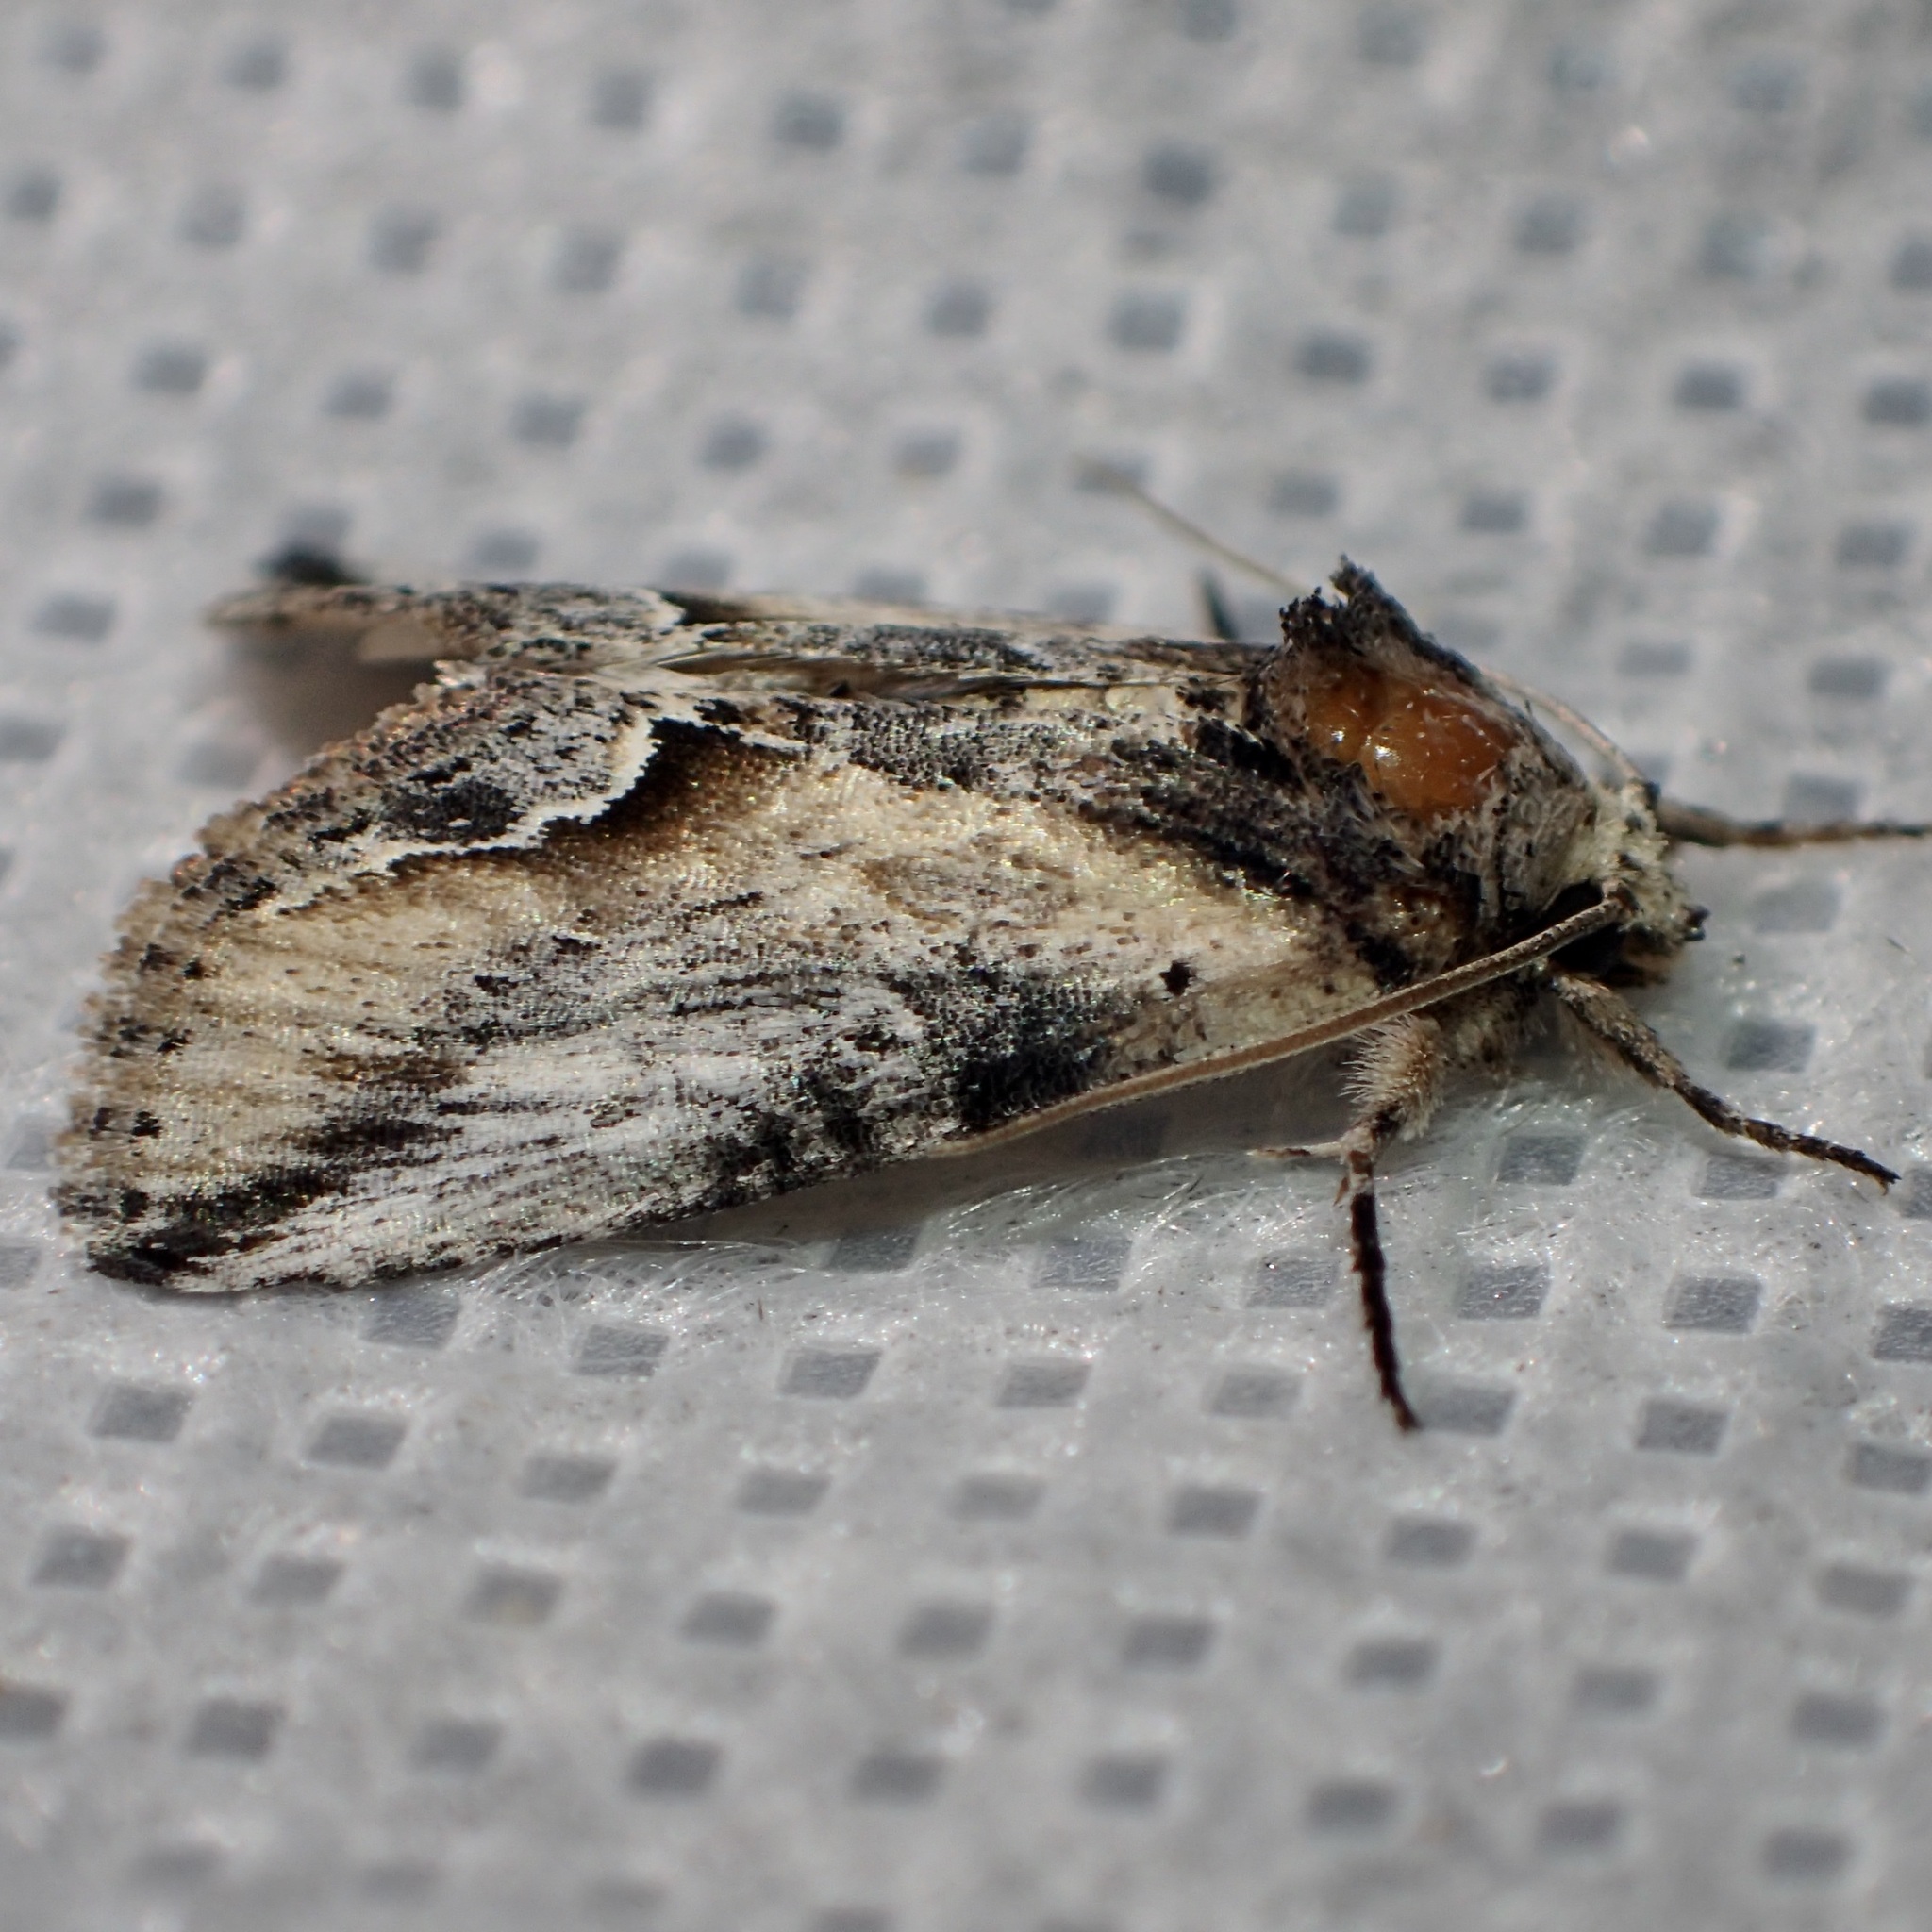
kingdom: Animalia
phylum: Arthropoda
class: Insecta
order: Lepidoptera
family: Noctuidae
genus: Prothrinax
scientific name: Prothrinax luteomedia
